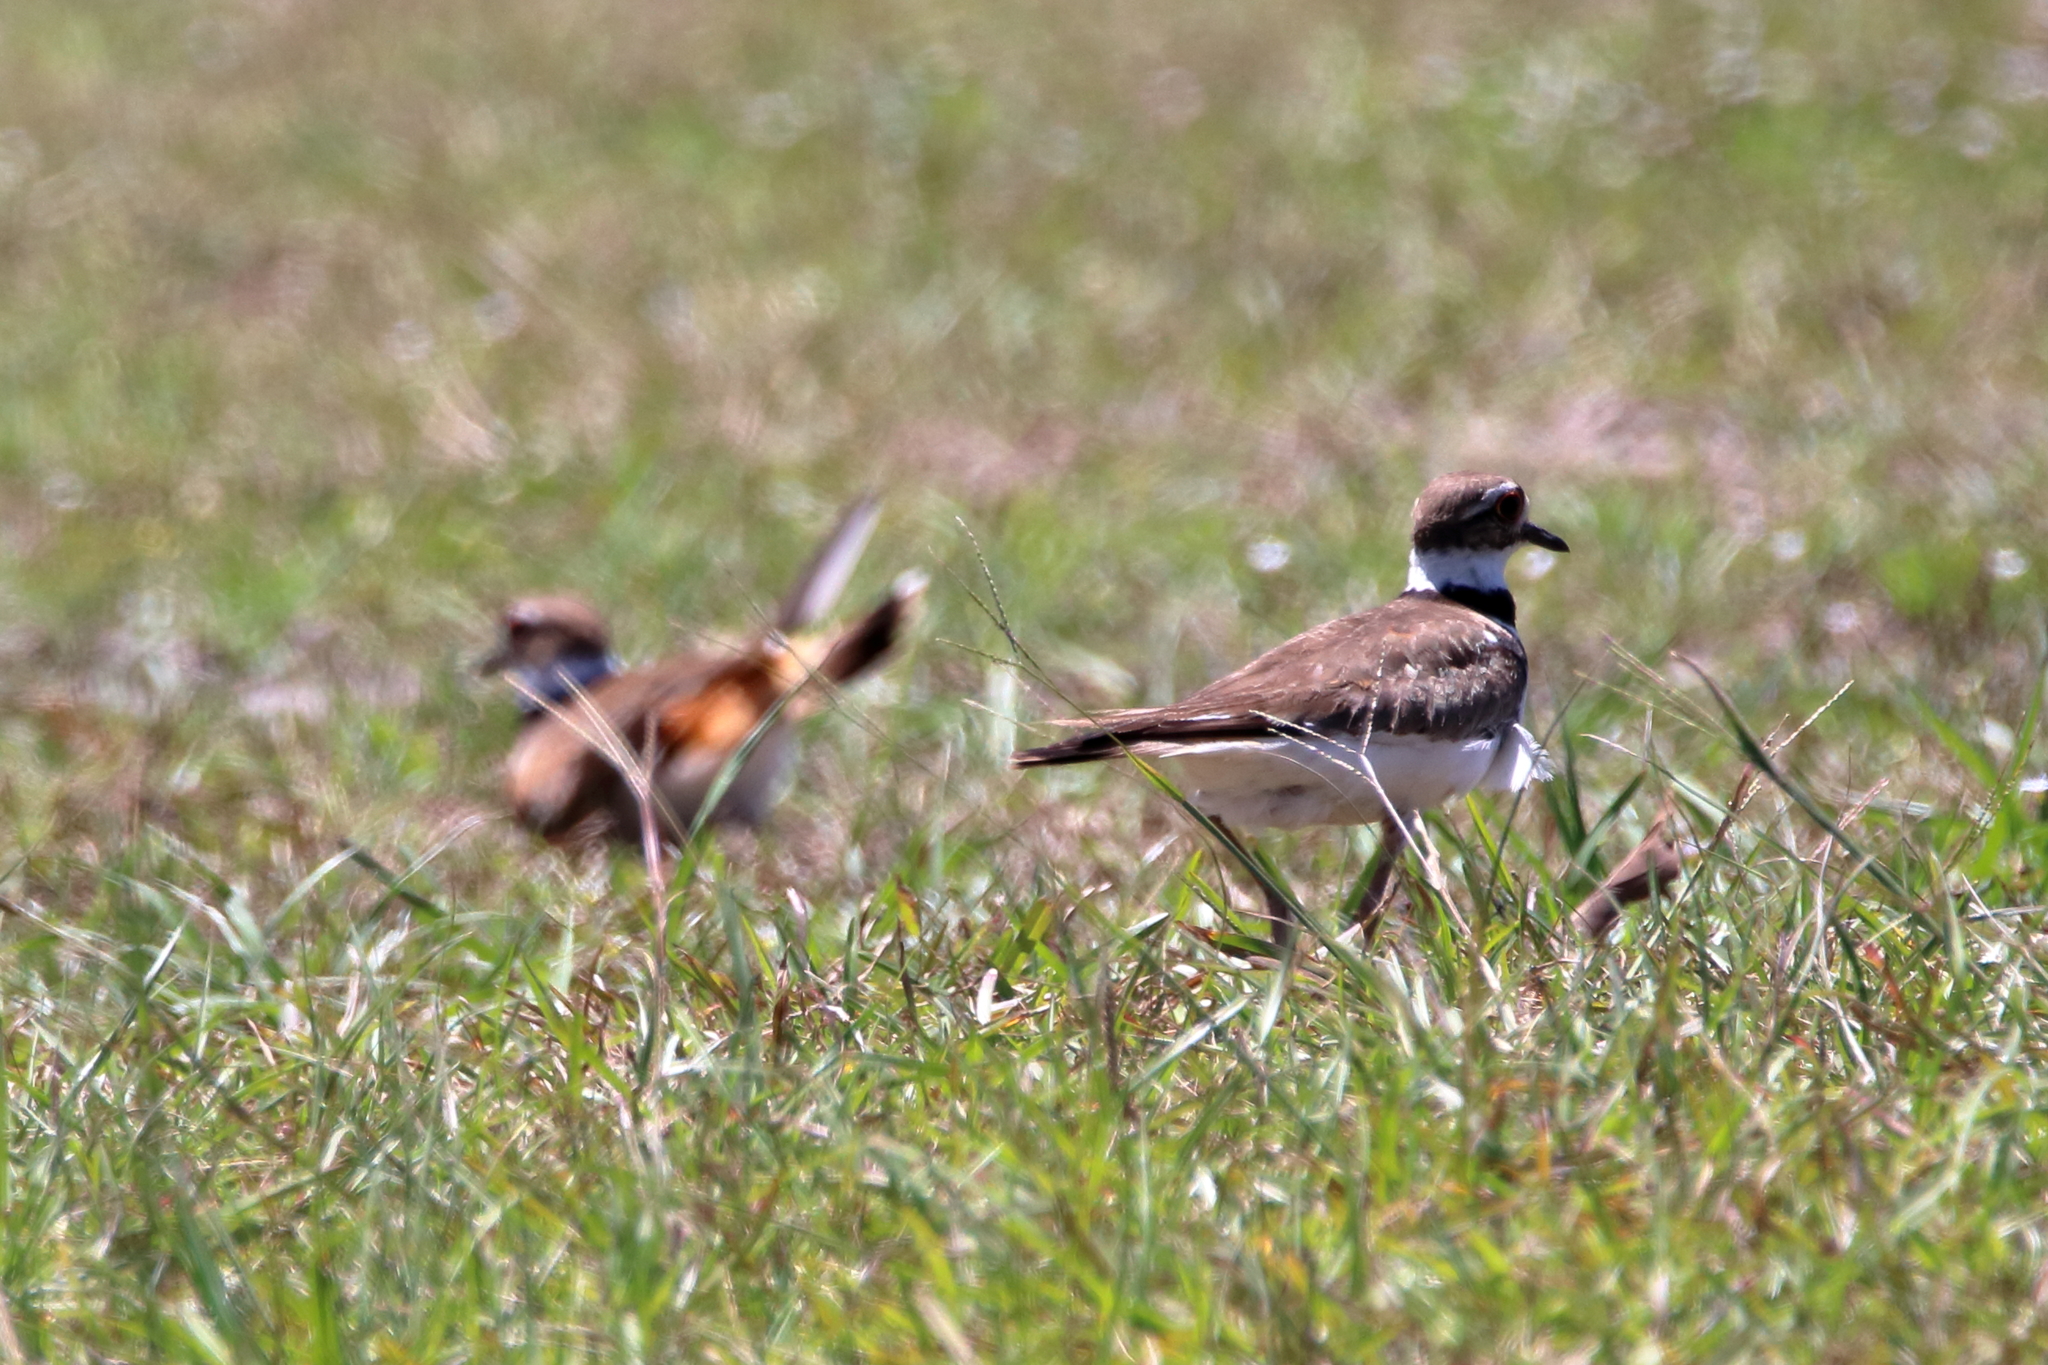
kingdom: Animalia
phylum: Chordata
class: Aves
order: Charadriiformes
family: Charadriidae
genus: Charadrius
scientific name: Charadrius vociferus
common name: Killdeer
